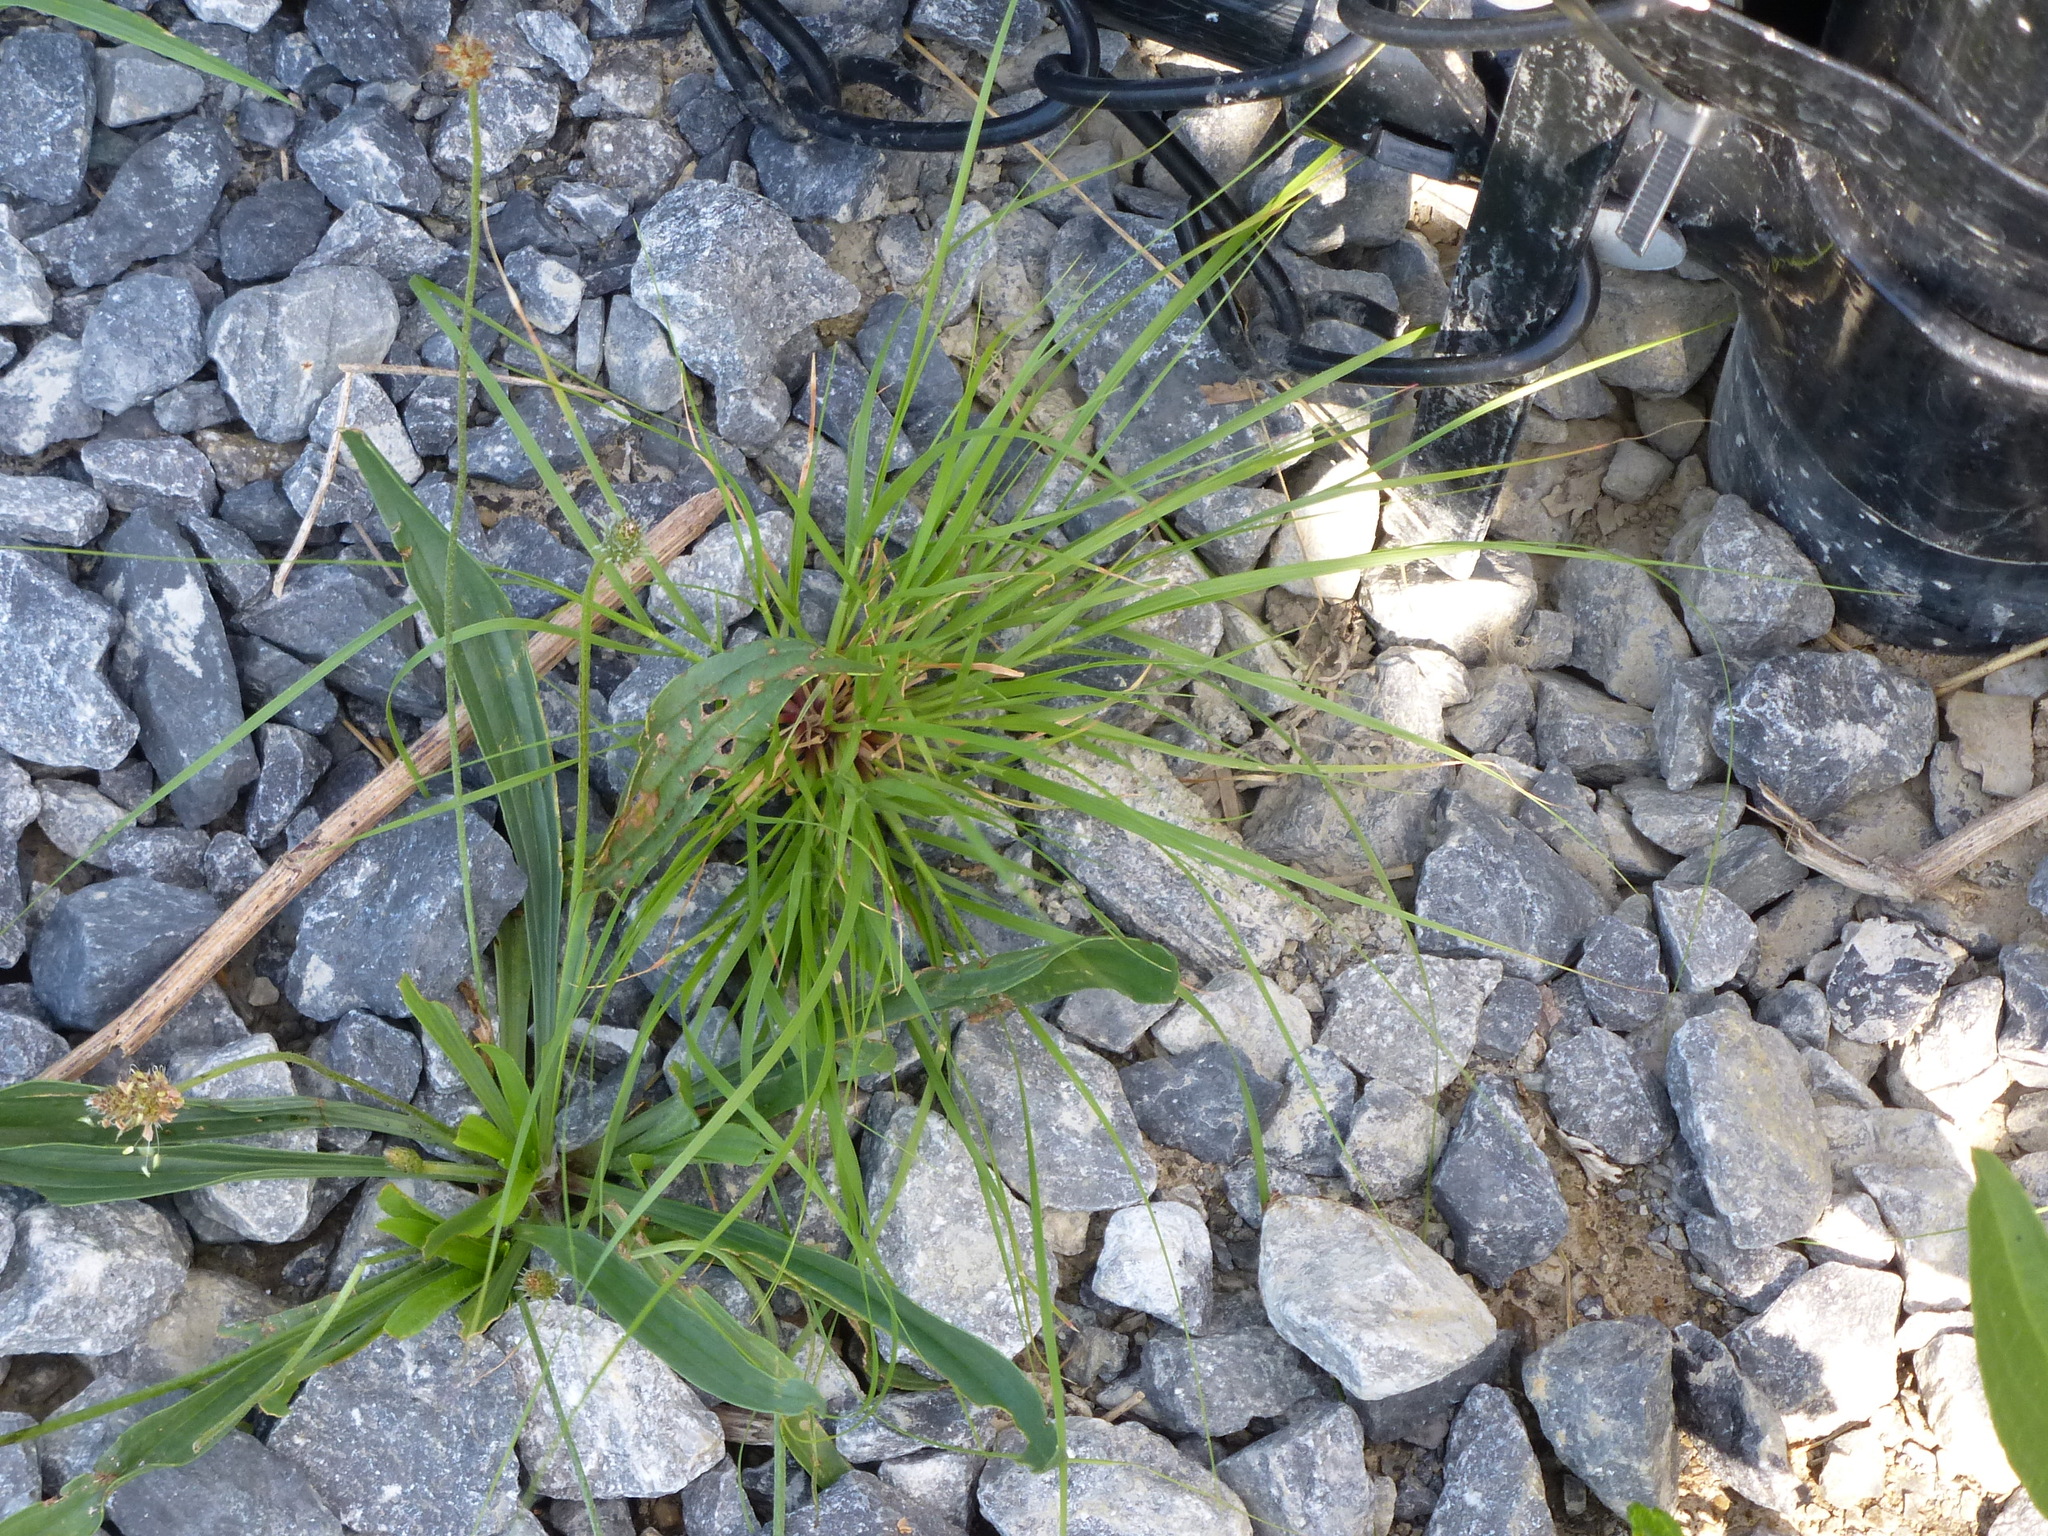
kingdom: Plantae
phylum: Tracheophyta
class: Magnoliopsida
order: Lamiales
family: Plantaginaceae
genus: Plantago
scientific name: Plantago lanceolata
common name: Ribwort plantain
